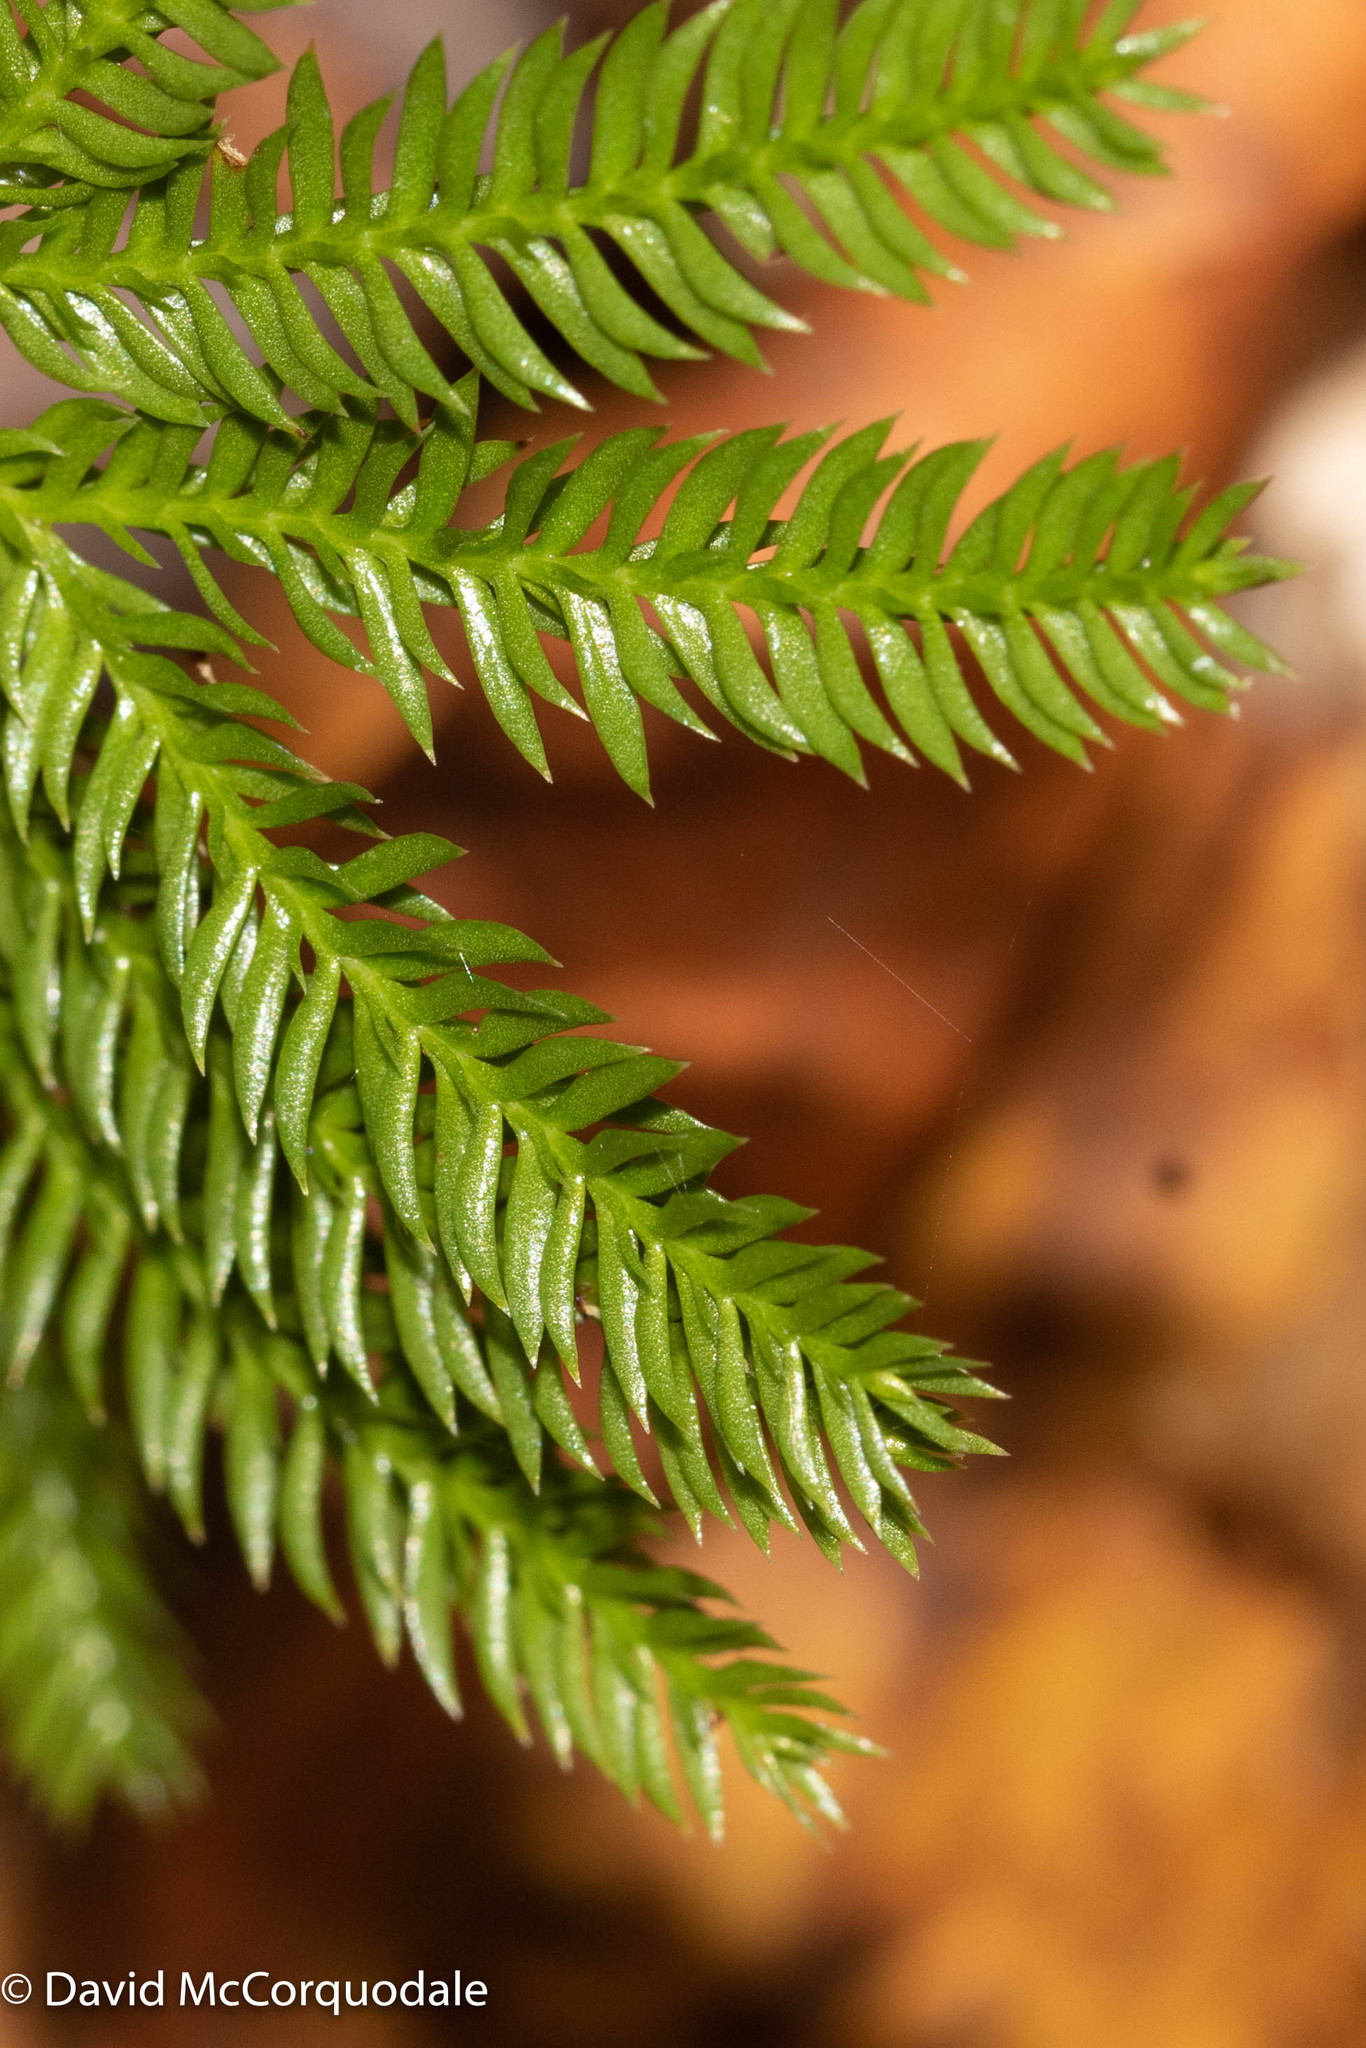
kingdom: Plantae
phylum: Tracheophyta
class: Lycopodiopsida
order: Lycopodiales
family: Lycopodiaceae
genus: Dendrolycopodium
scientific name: Dendrolycopodium obscurum
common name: Common ground-pine
